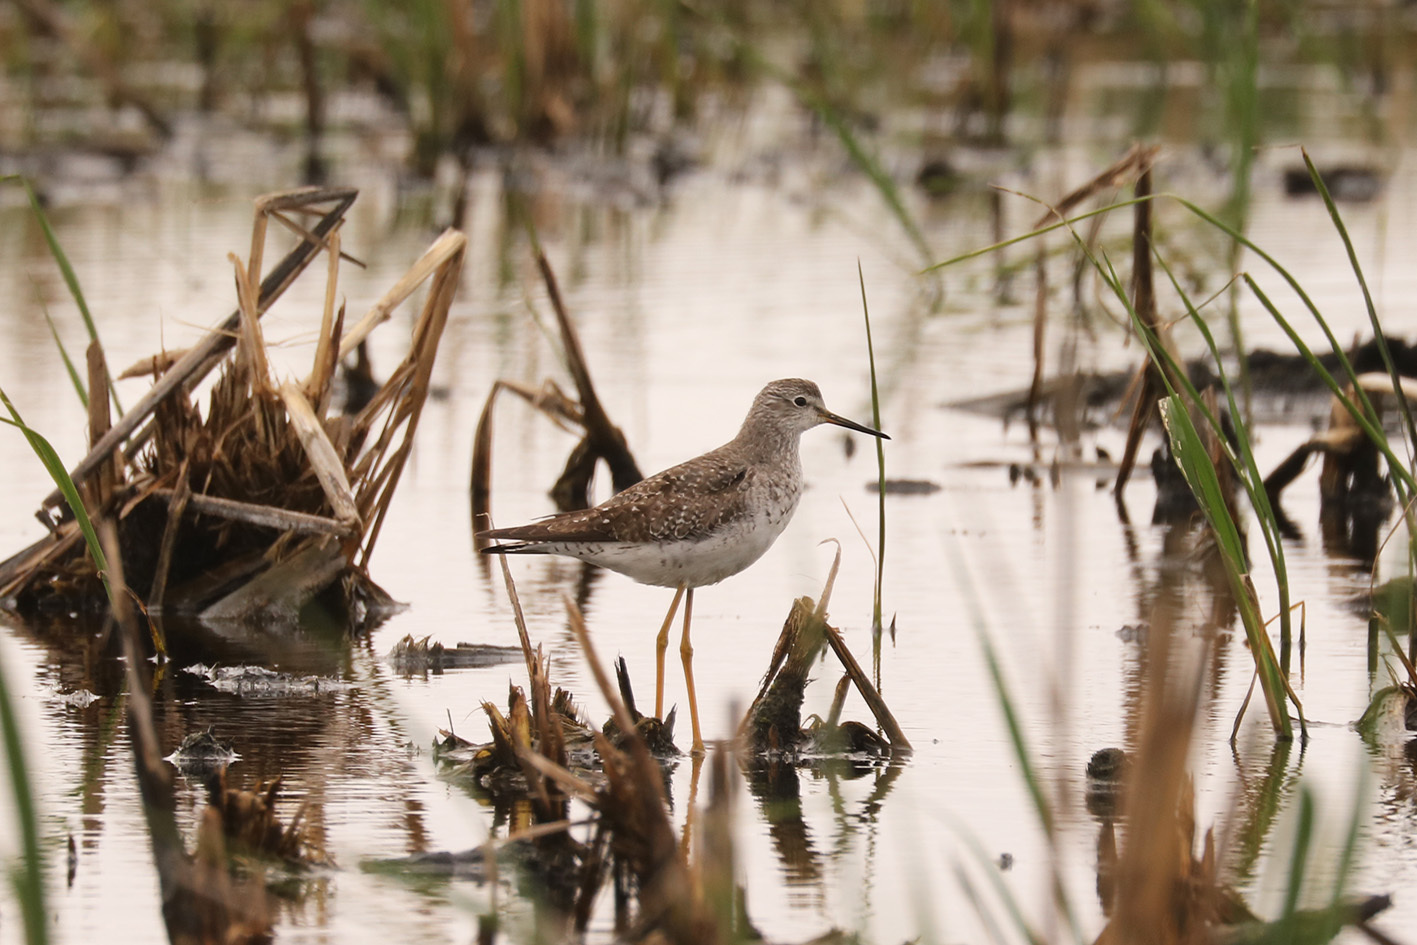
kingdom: Animalia
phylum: Chordata
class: Aves
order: Charadriiformes
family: Scolopacidae
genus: Tringa
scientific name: Tringa flavipes
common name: Lesser yellowlegs
